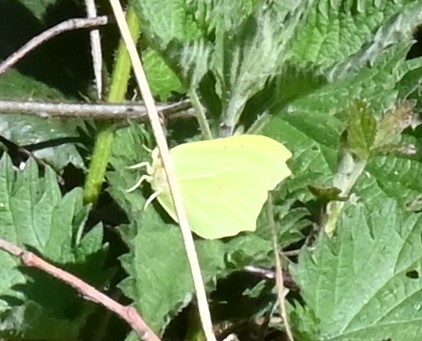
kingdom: Animalia
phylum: Arthropoda
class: Insecta
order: Lepidoptera
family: Pieridae
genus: Gonepteryx
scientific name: Gonepteryx rhamni
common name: Brimstone
